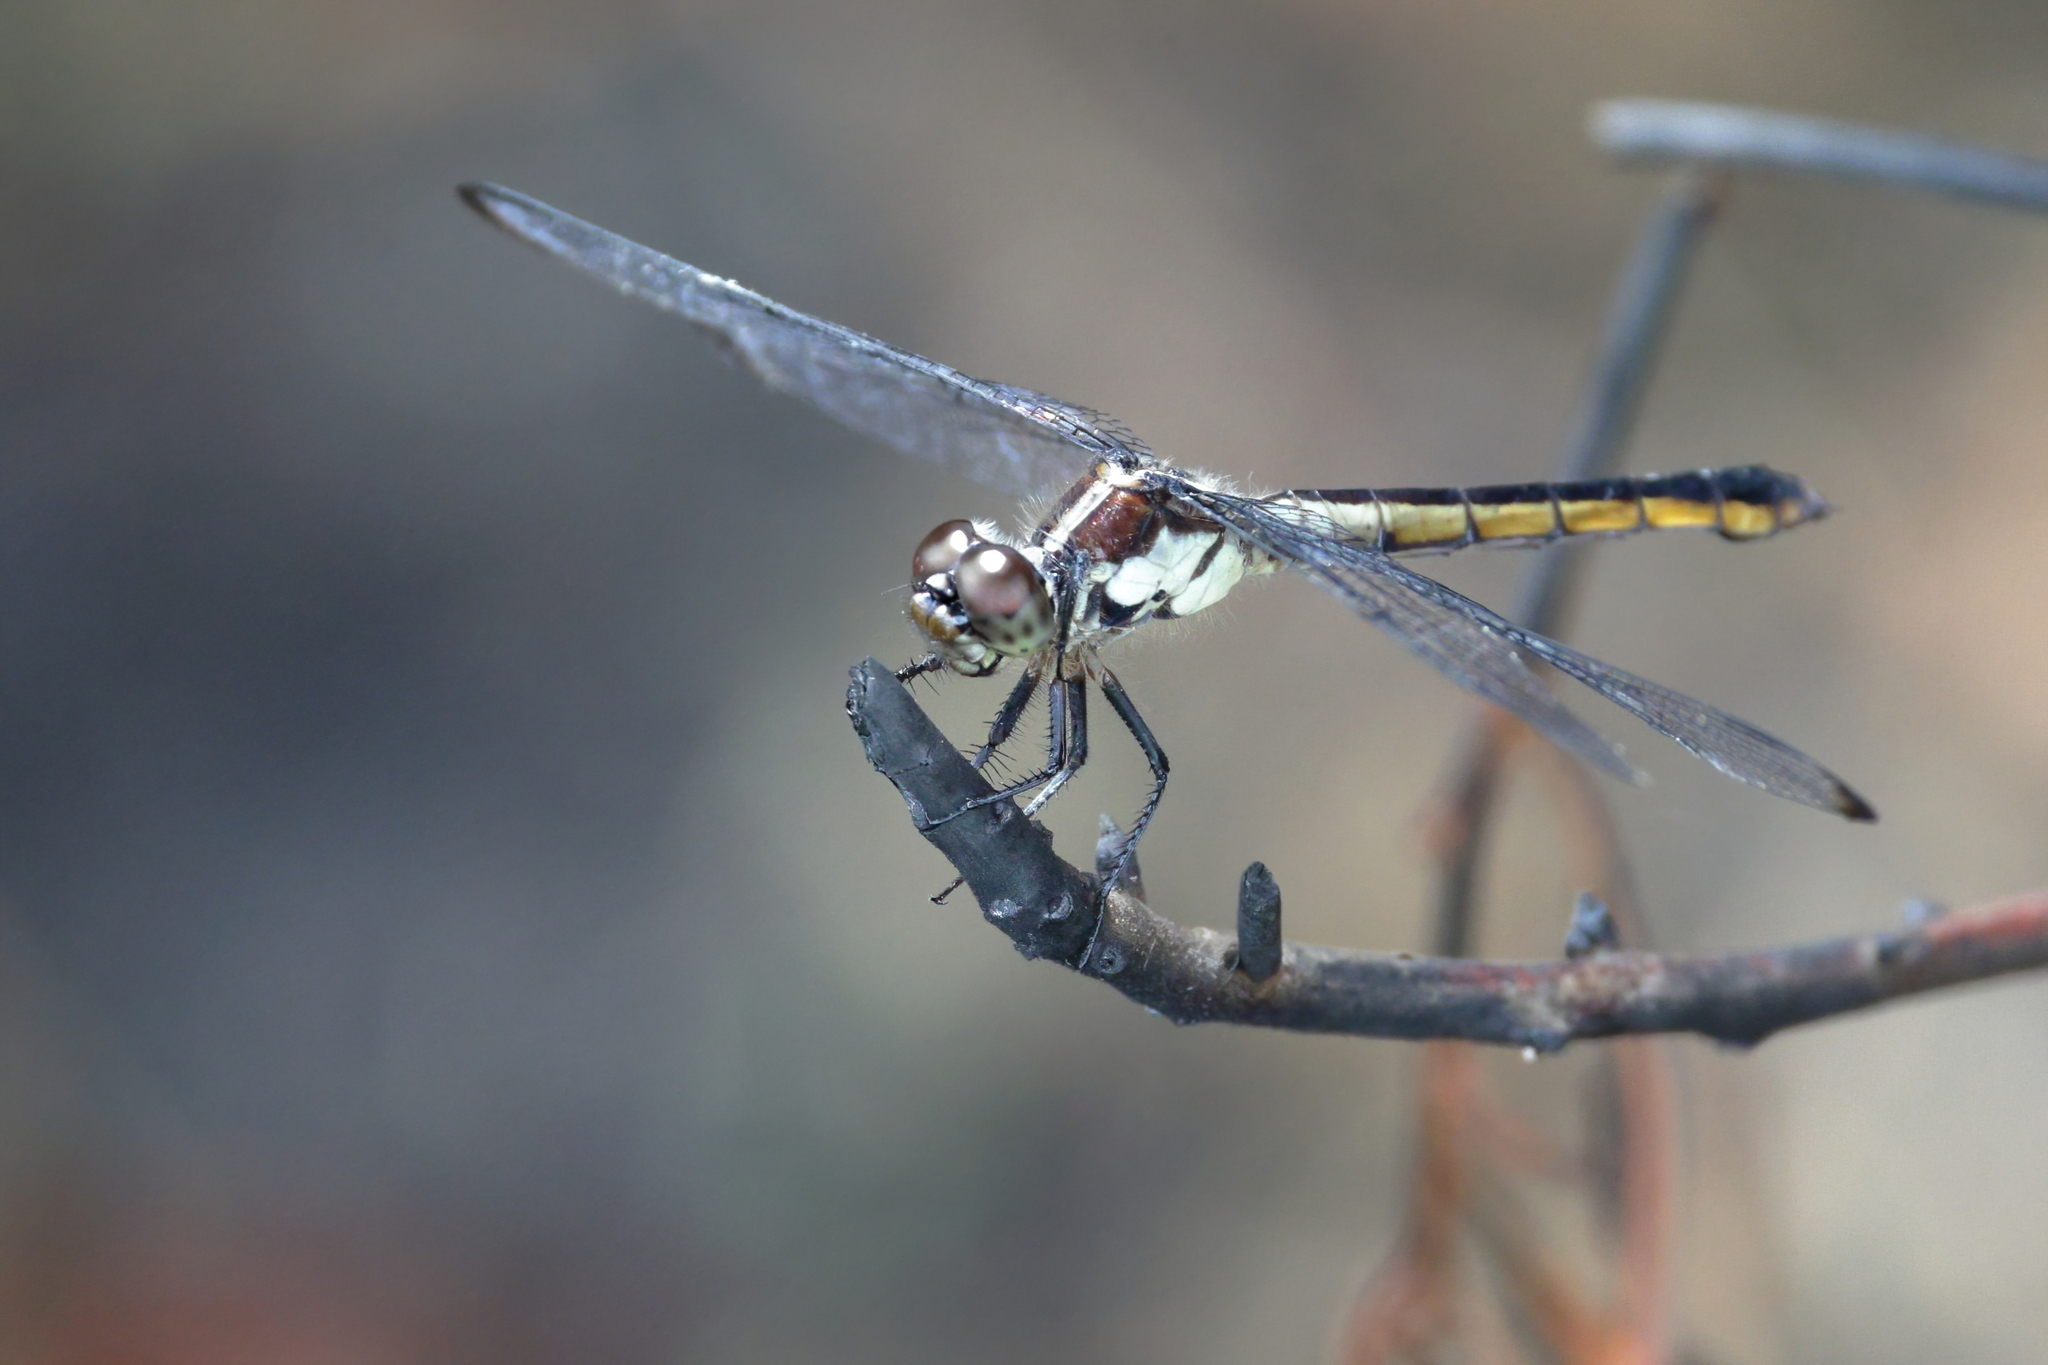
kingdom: Animalia
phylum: Arthropoda
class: Insecta
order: Odonata
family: Libellulidae
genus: Libellula
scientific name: Libellula incesta
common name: Slaty skimmer
